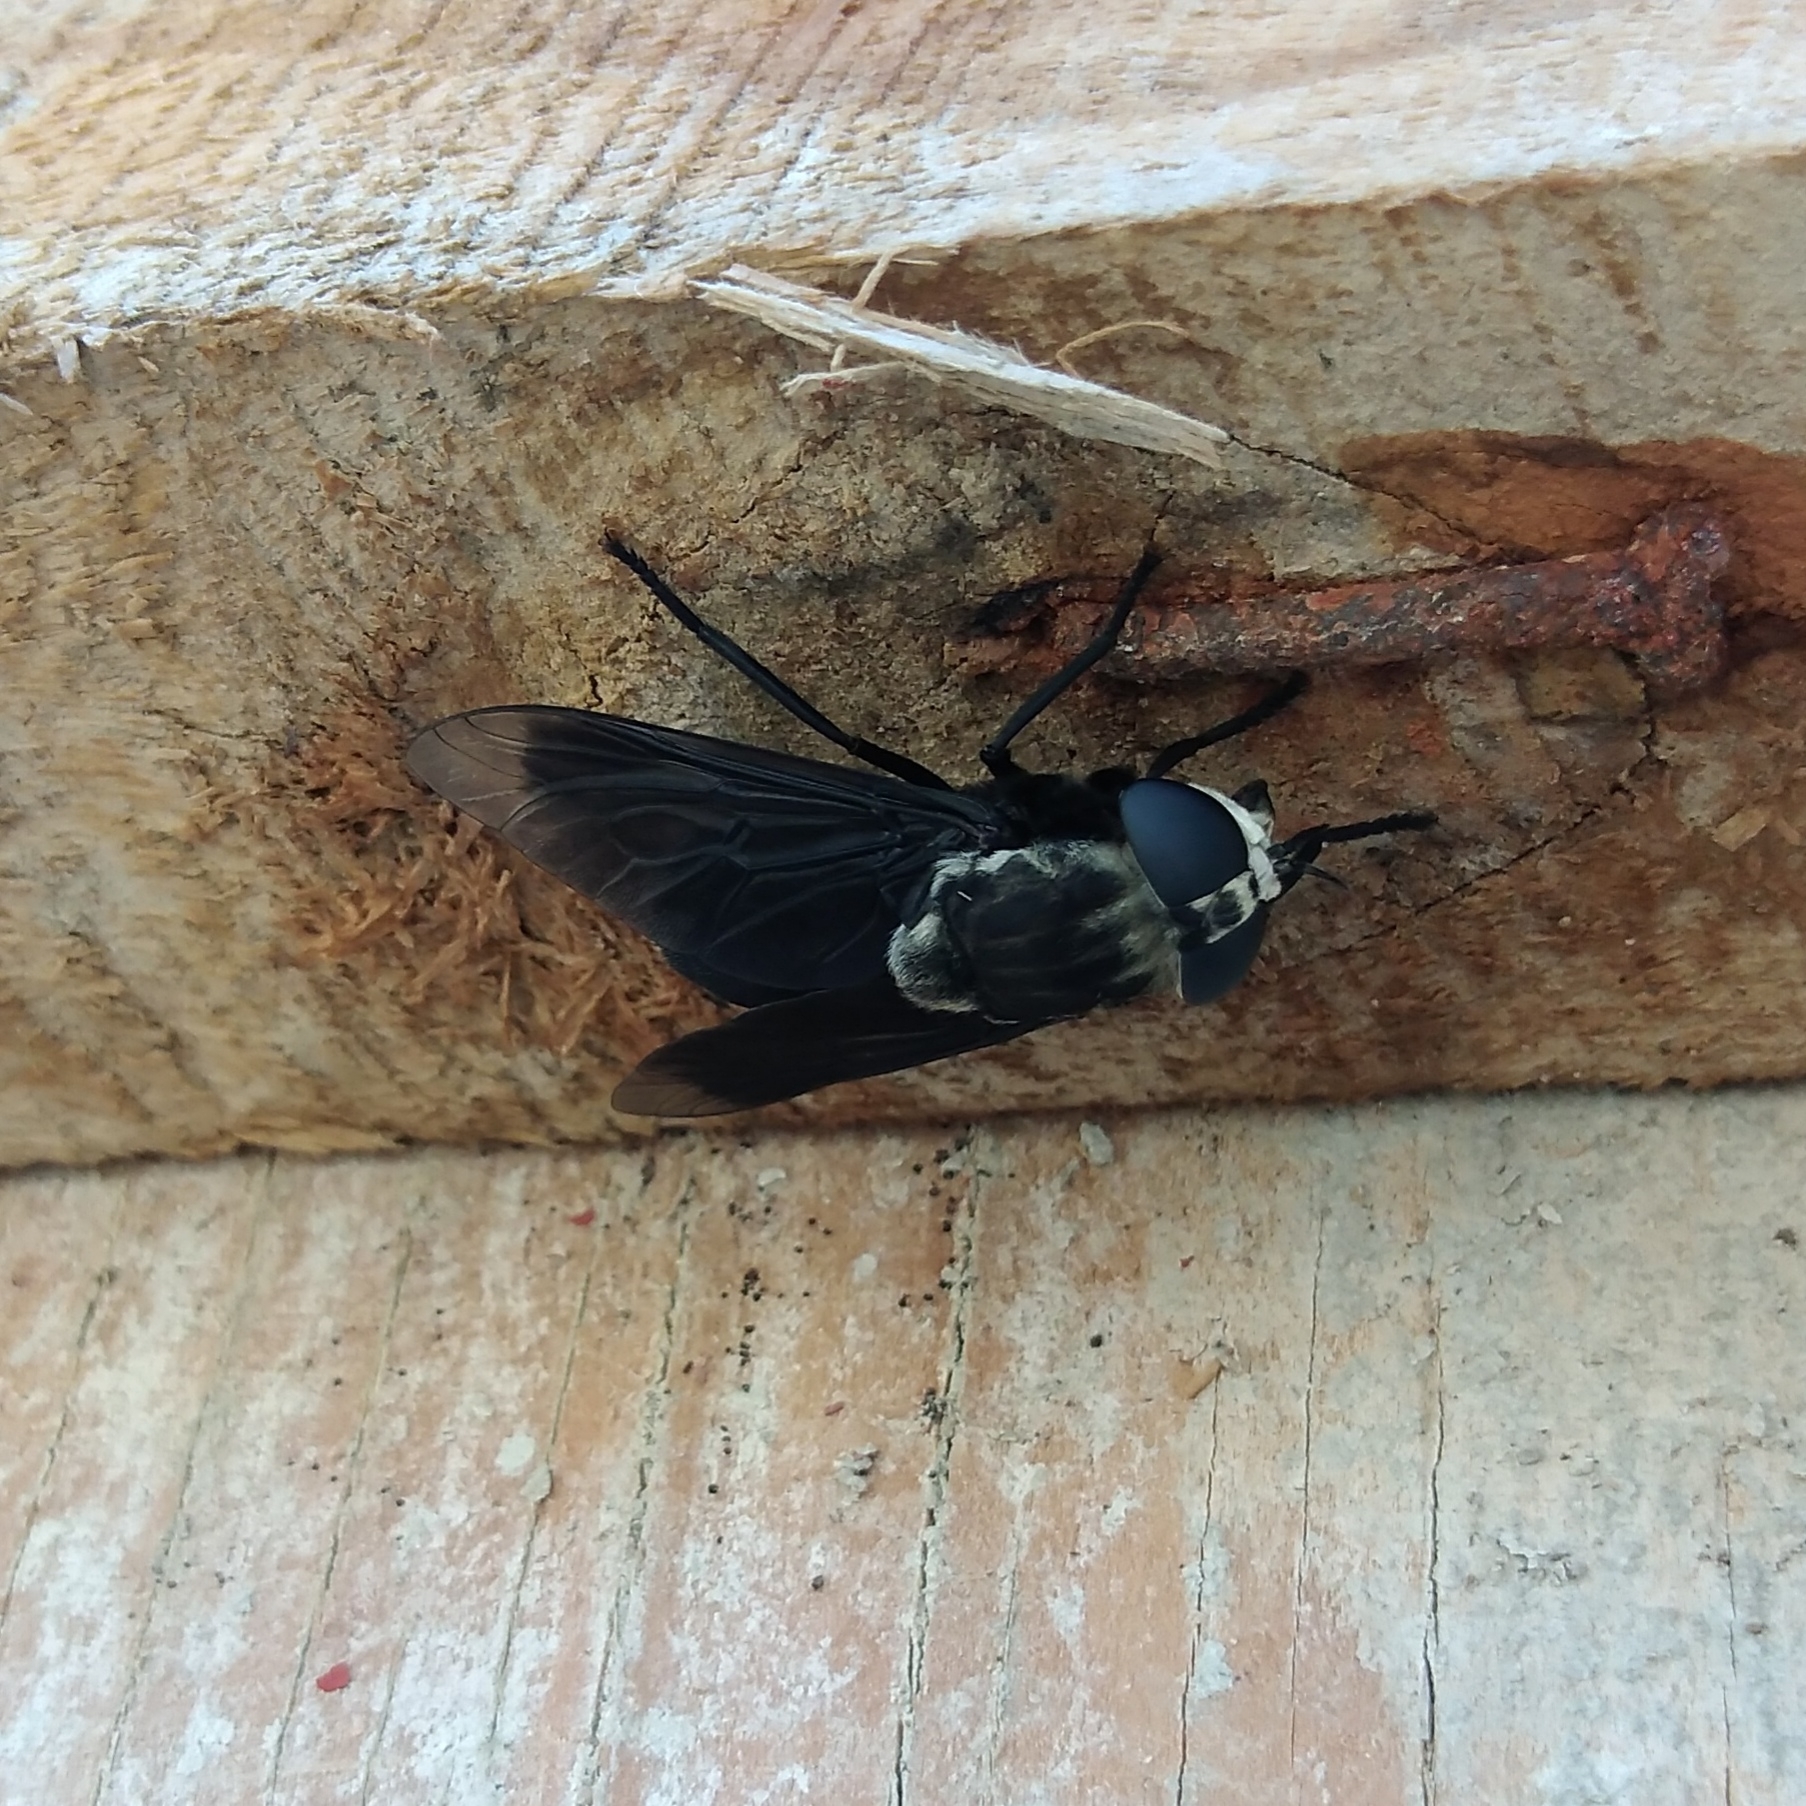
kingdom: Animalia
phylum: Arthropoda
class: Insecta
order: Diptera
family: Tabanidae
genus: Tabanus
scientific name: Tabanus biguttatus
